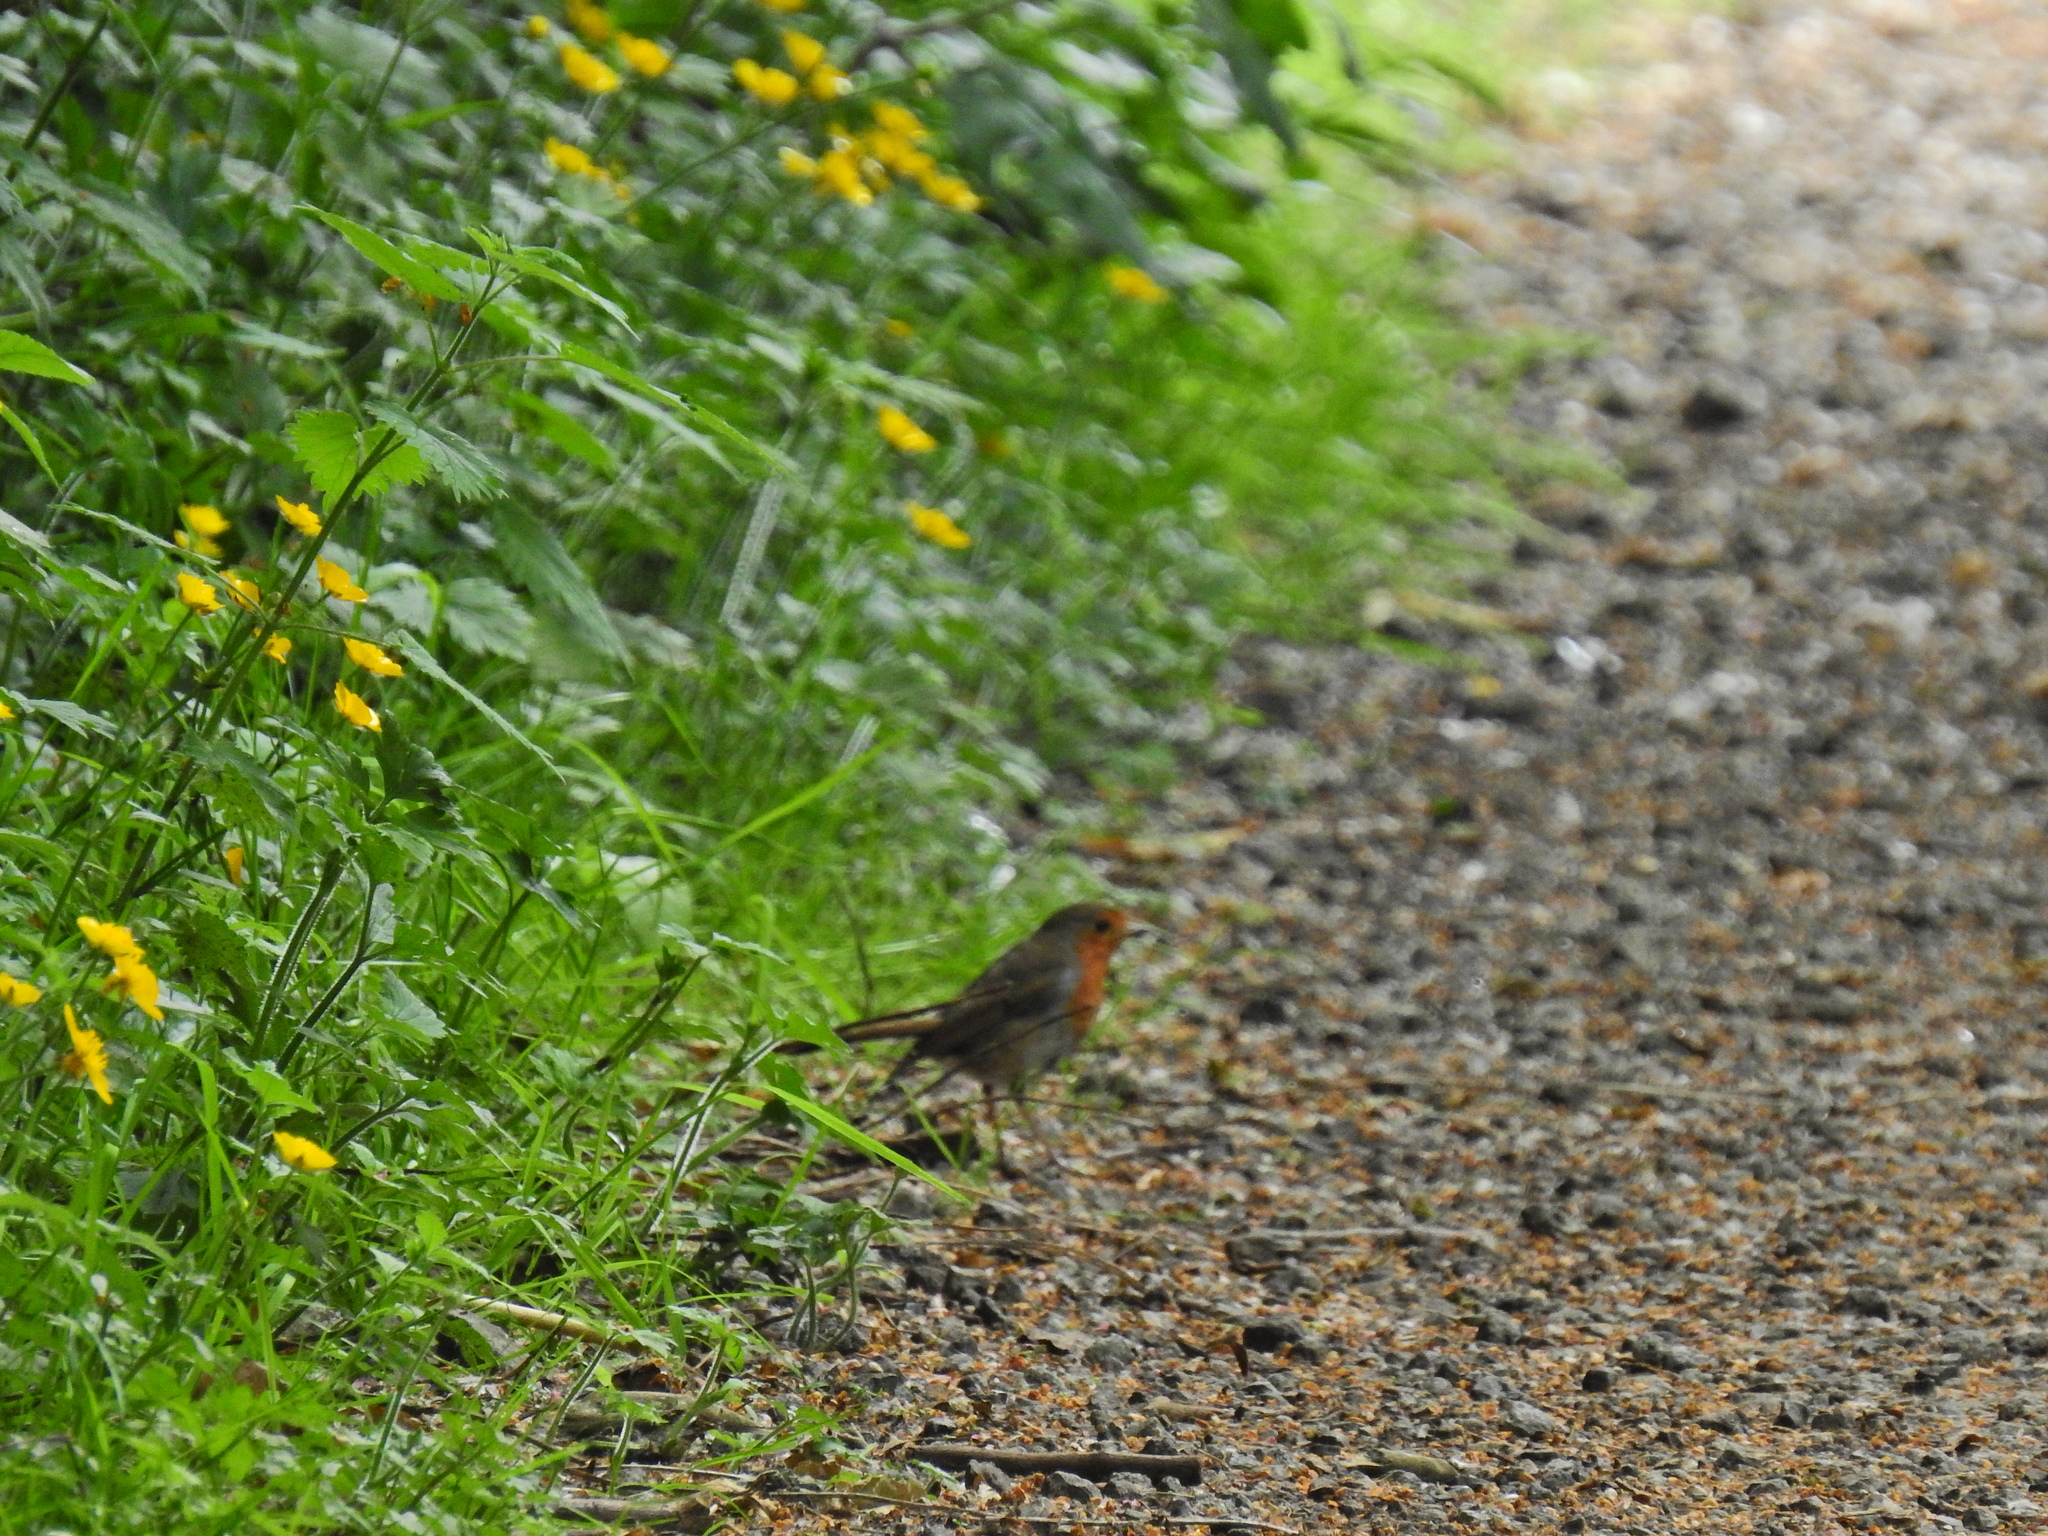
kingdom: Animalia
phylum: Chordata
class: Aves
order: Passeriformes
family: Muscicapidae
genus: Erithacus
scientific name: Erithacus rubecula
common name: European robin
